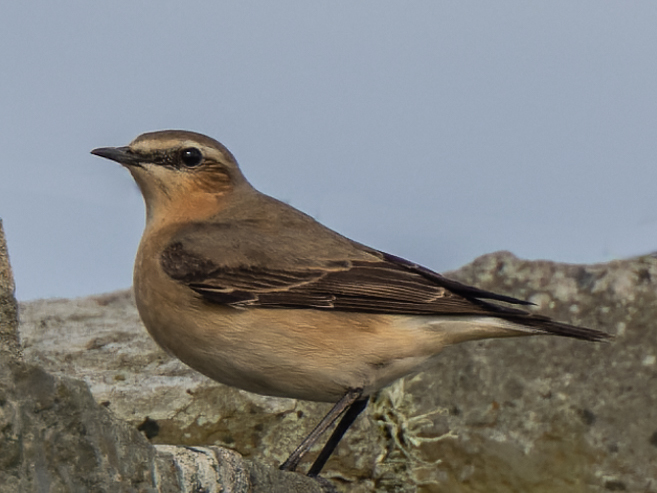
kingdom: Animalia
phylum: Chordata
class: Aves
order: Passeriformes
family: Muscicapidae
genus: Oenanthe
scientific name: Oenanthe oenanthe
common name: Northern wheatear
